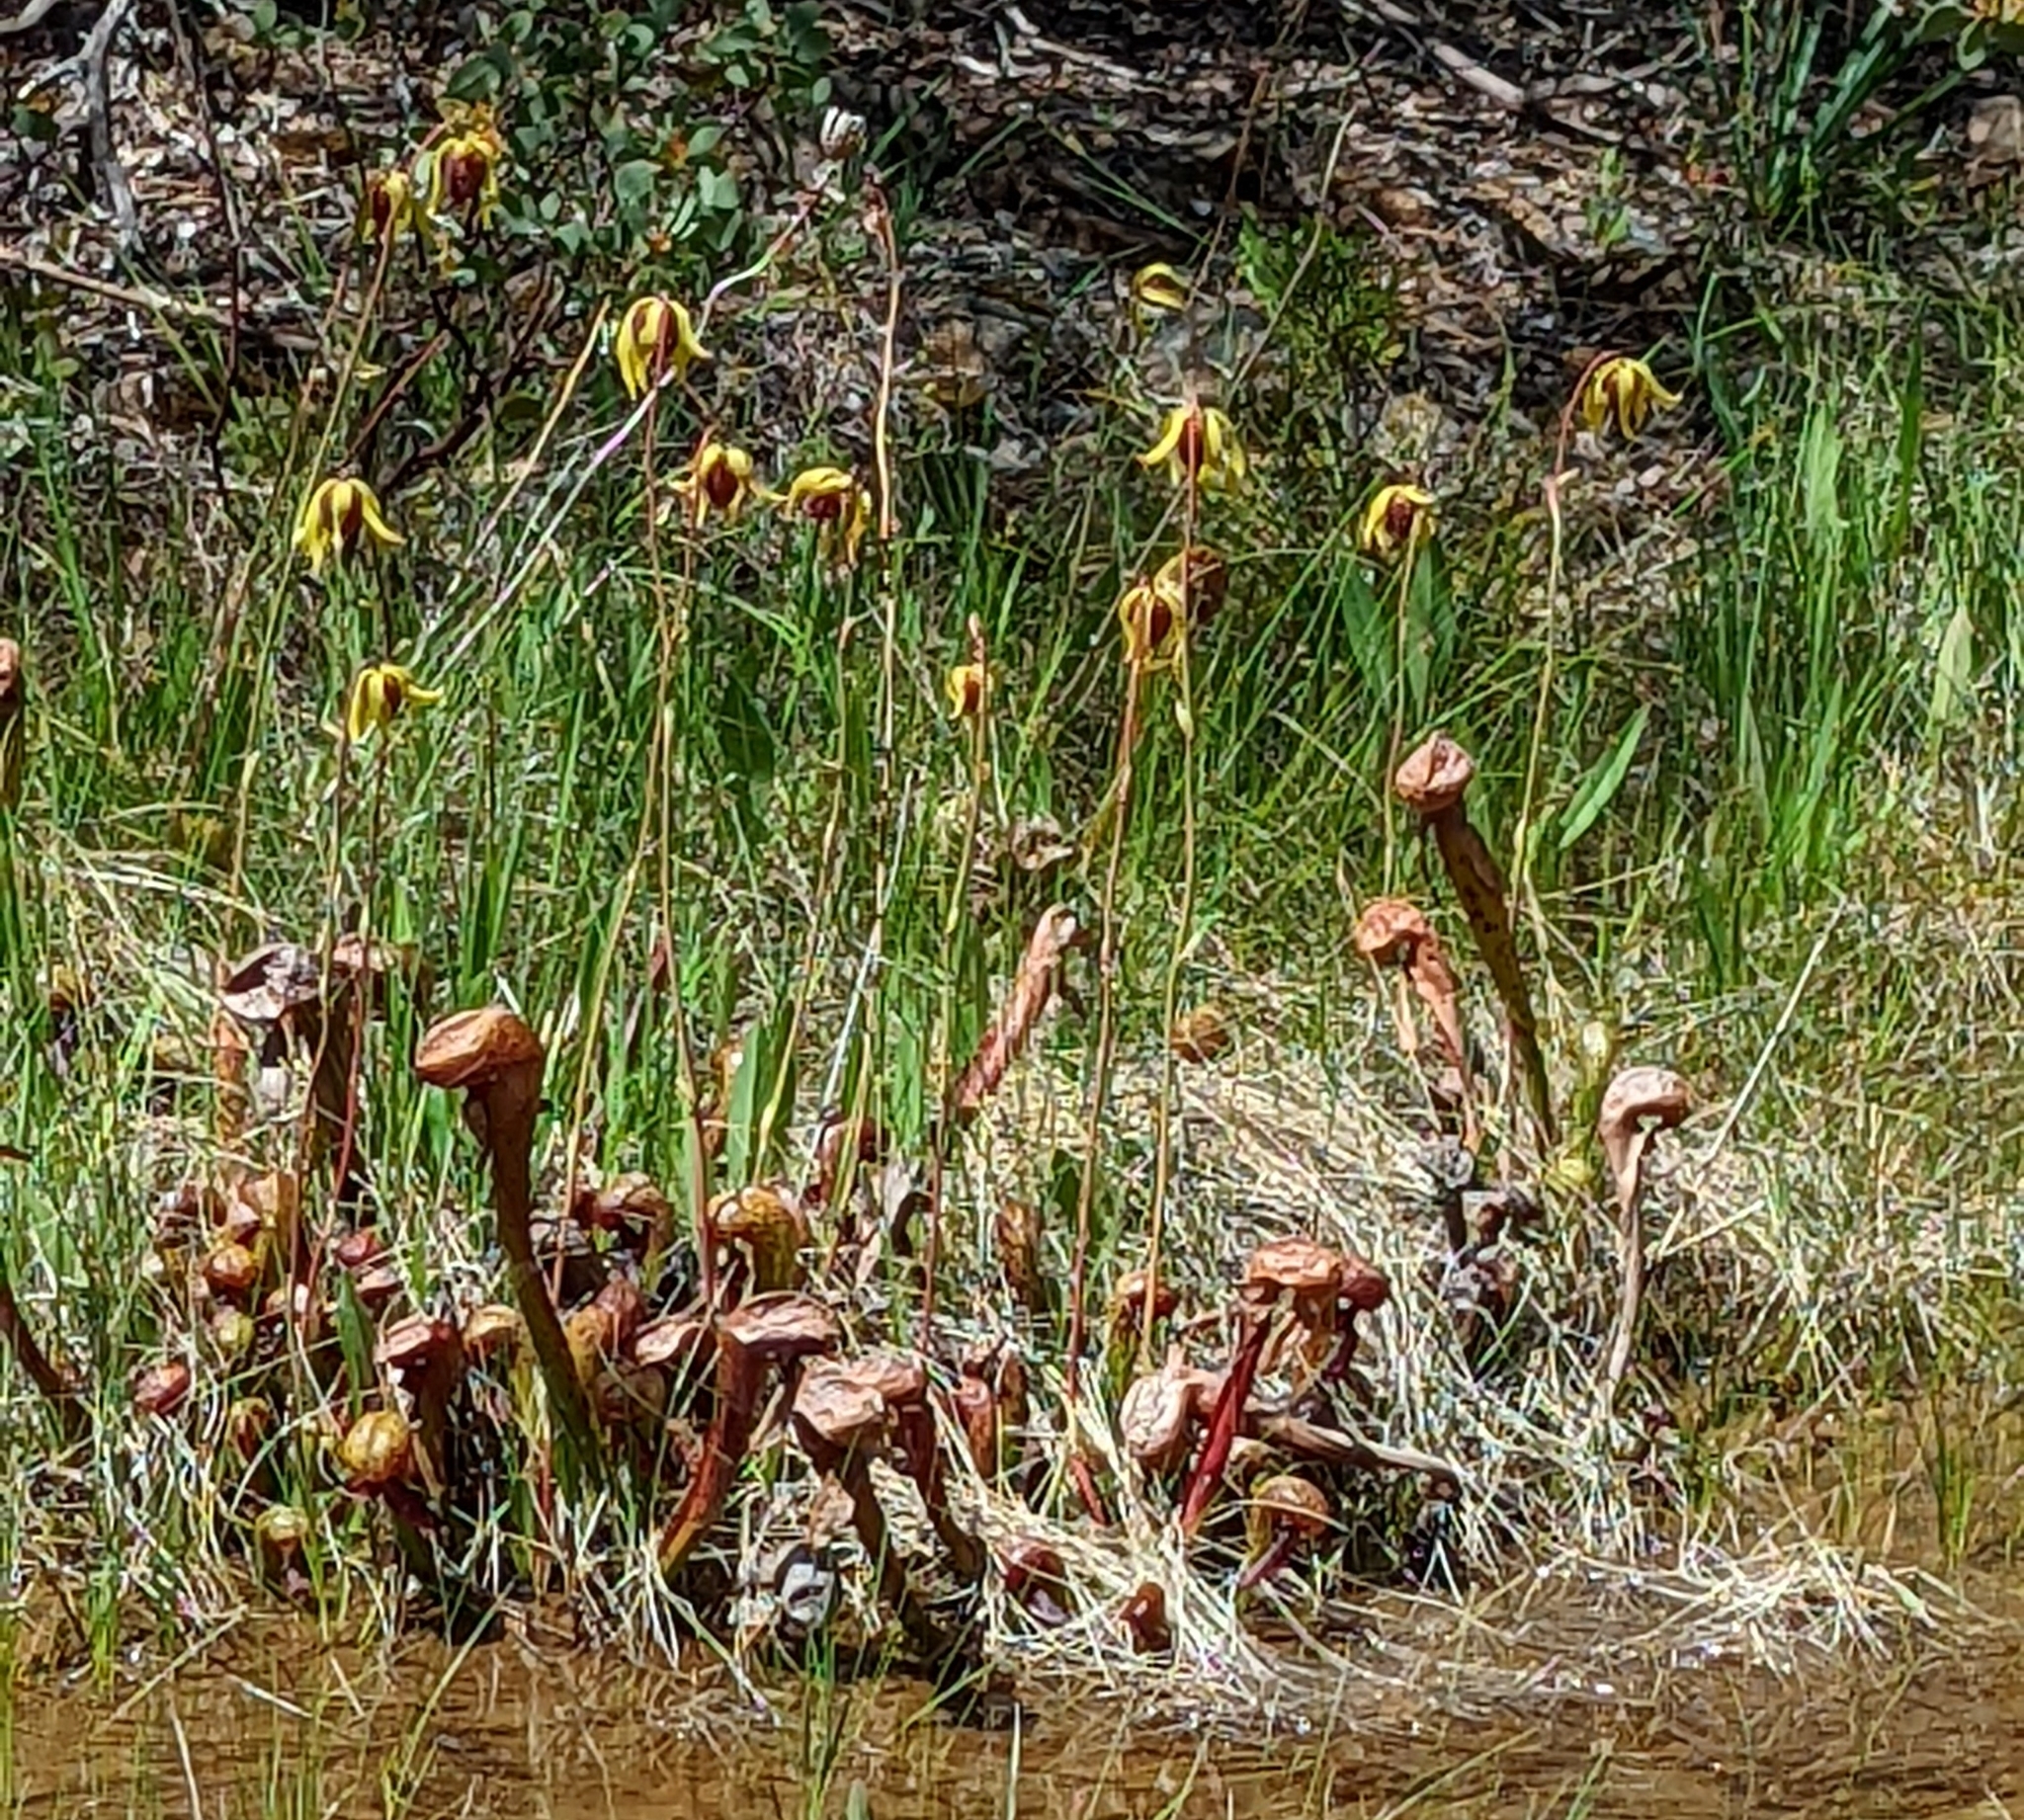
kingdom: Plantae
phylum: Tracheophyta
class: Magnoliopsida
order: Ericales
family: Sarraceniaceae
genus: Darlingtonia
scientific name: Darlingtonia californica
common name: California pitcher plant
